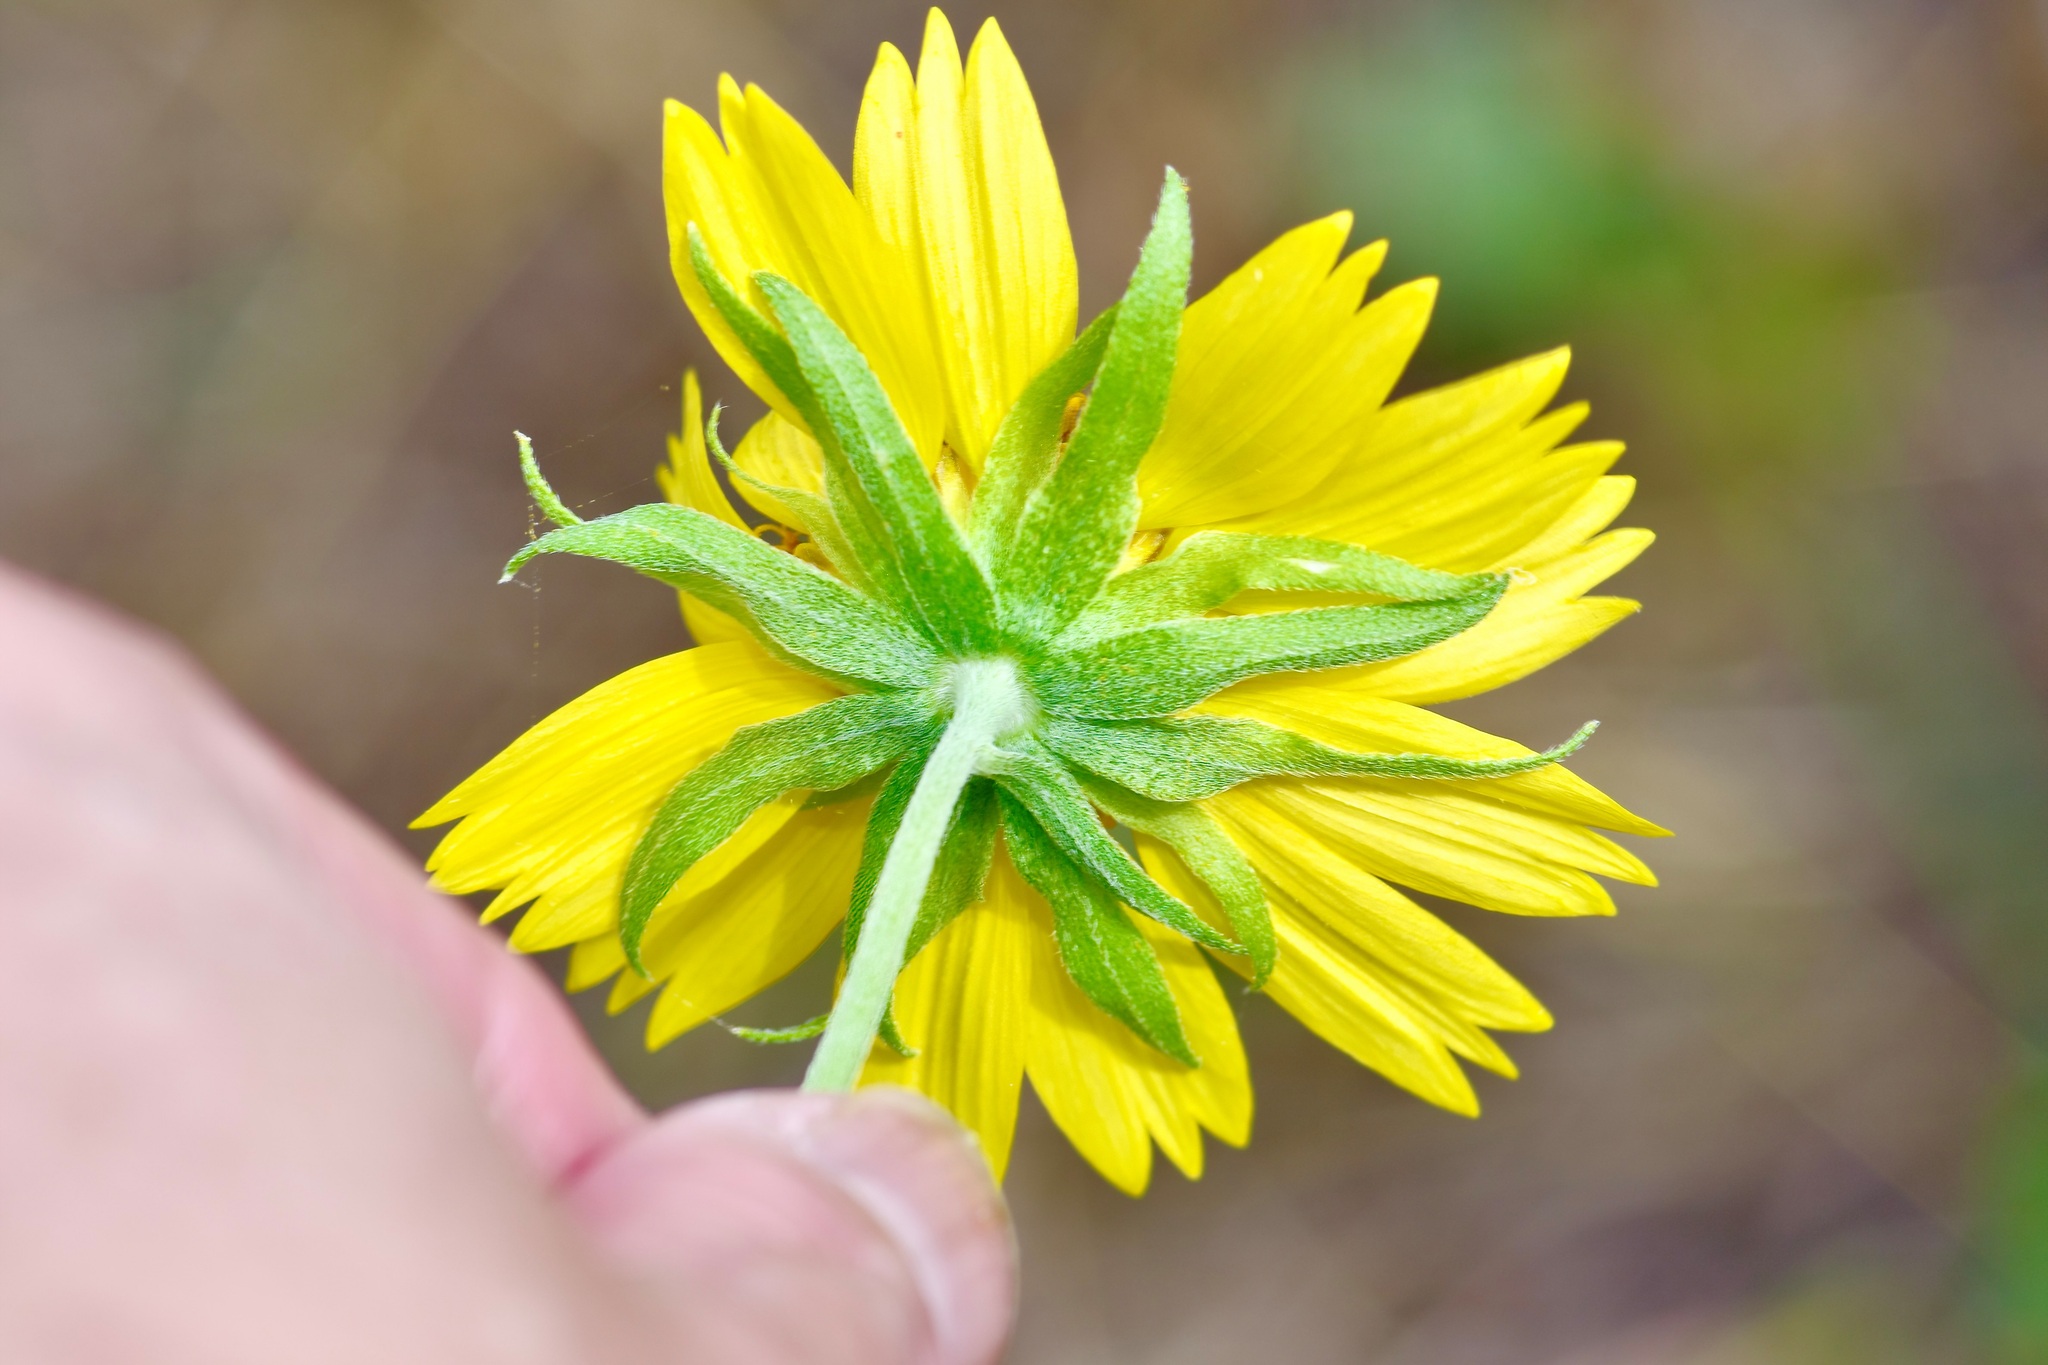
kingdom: Plantae
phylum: Tracheophyta
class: Magnoliopsida
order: Asterales
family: Asteraceae
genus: Verbesina
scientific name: Verbesina encelioides
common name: Golden crownbeard
